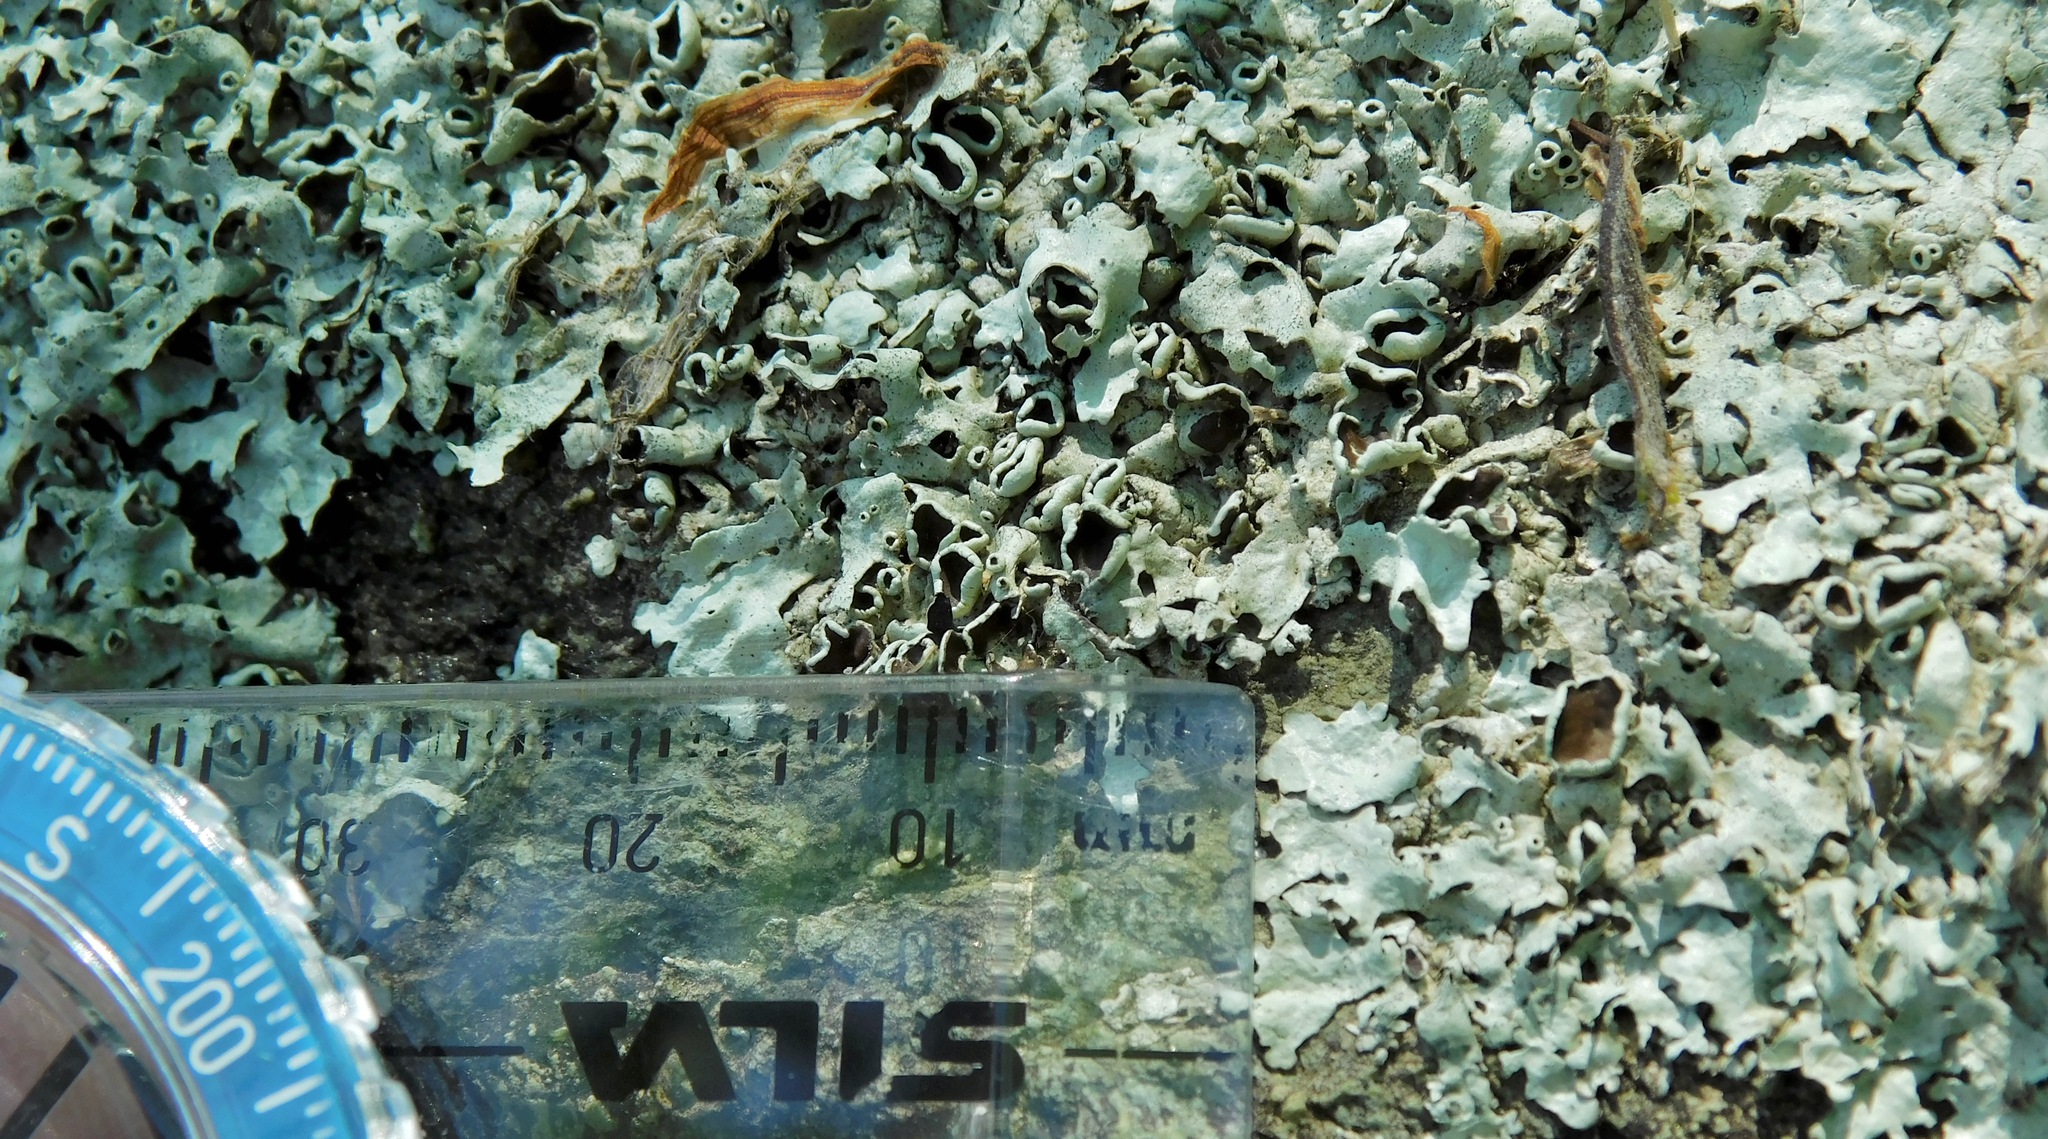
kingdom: Fungi
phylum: Ascomycota
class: Lecanoromycetes
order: Lecanorales
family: Parmeliaceae
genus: Xanthoparmelia
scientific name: Xanthoparmelia conspersa
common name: Peppered rock shield
